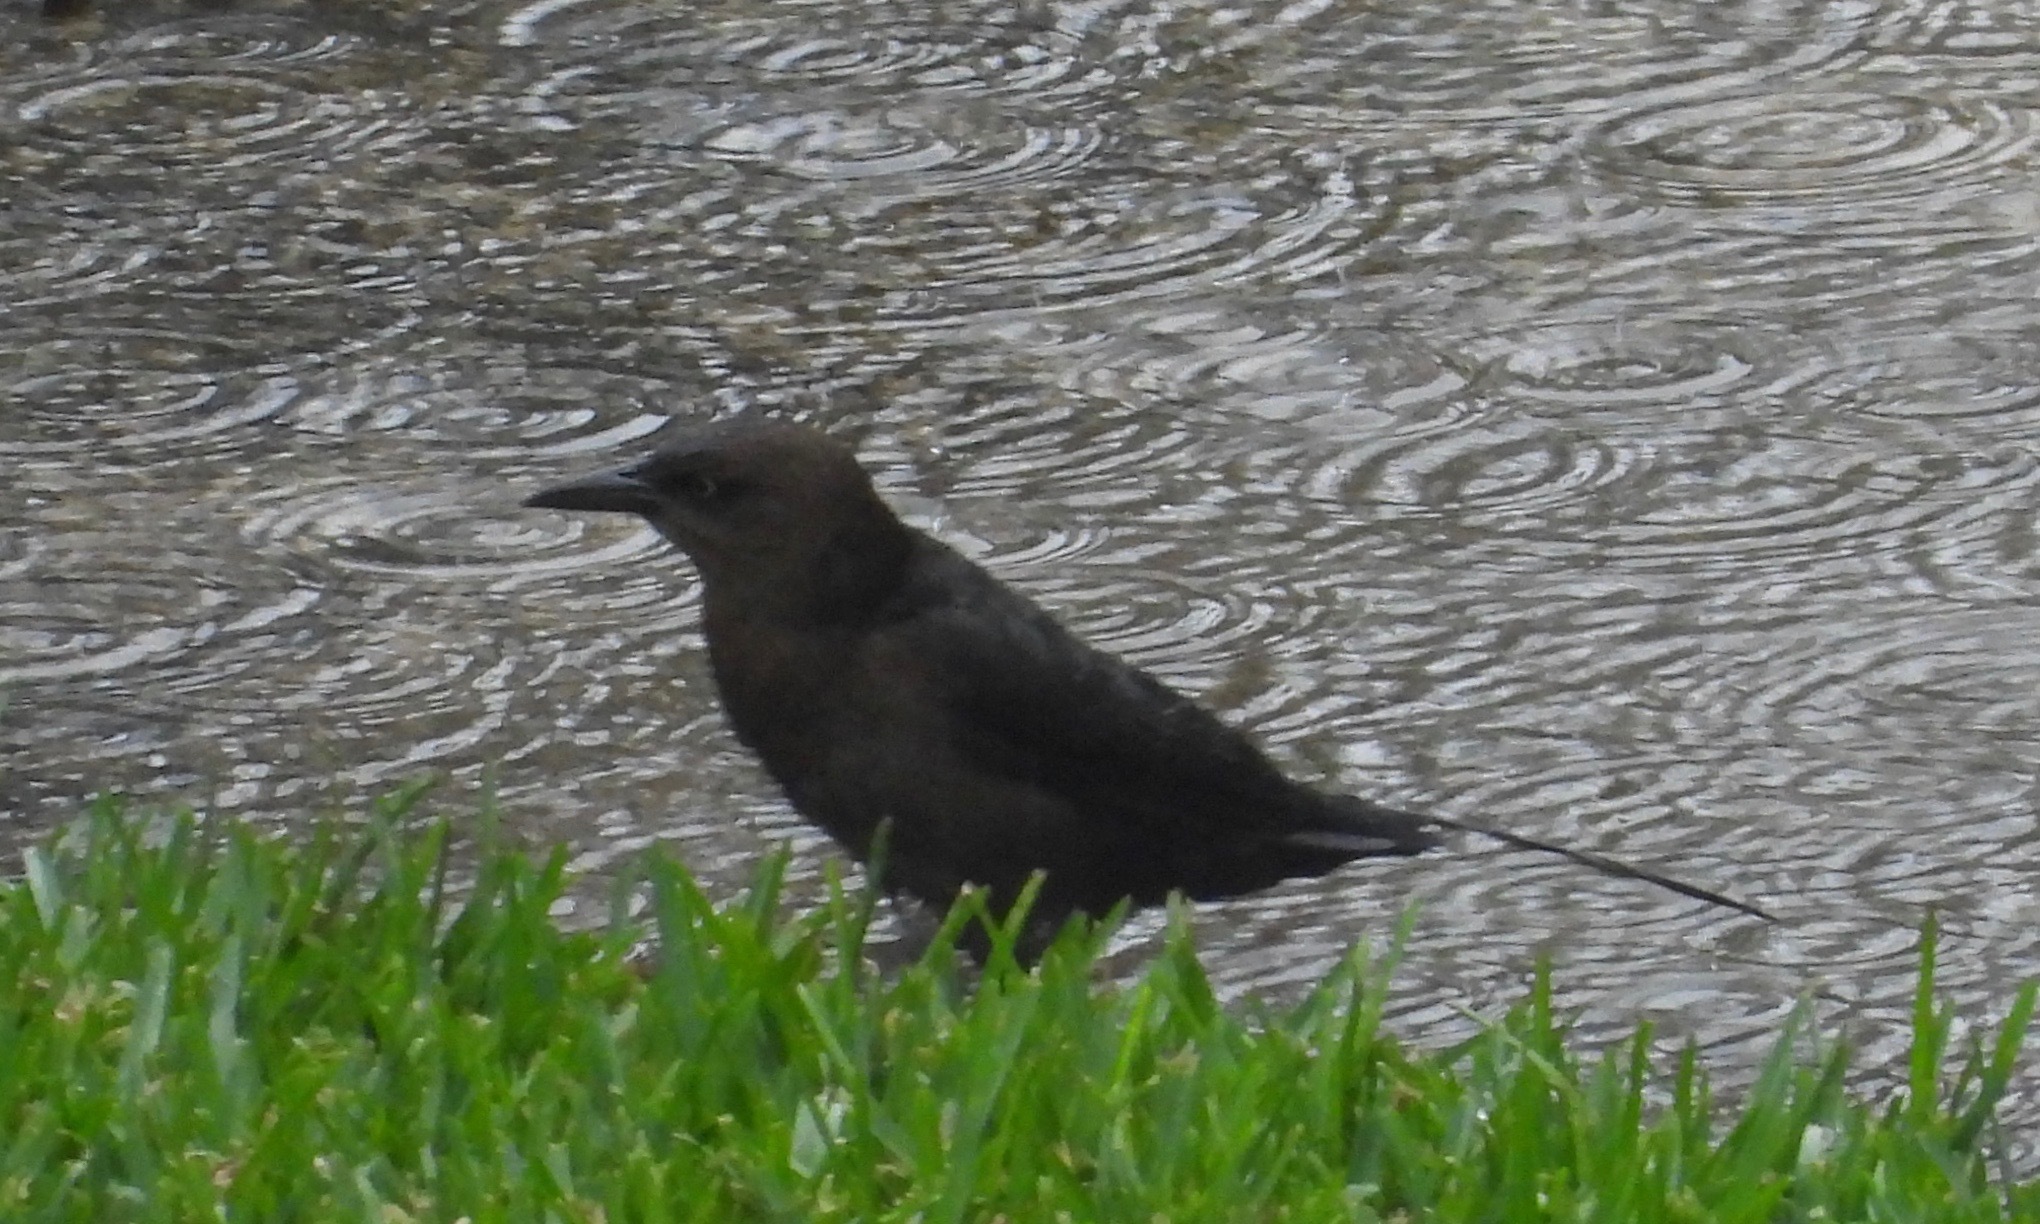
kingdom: Animalia
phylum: Chordata
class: Aves
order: Passeriformes
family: Icteridae
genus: Quiscalus
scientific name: Quiscalus mexicanus
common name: Great-tailed grackle
